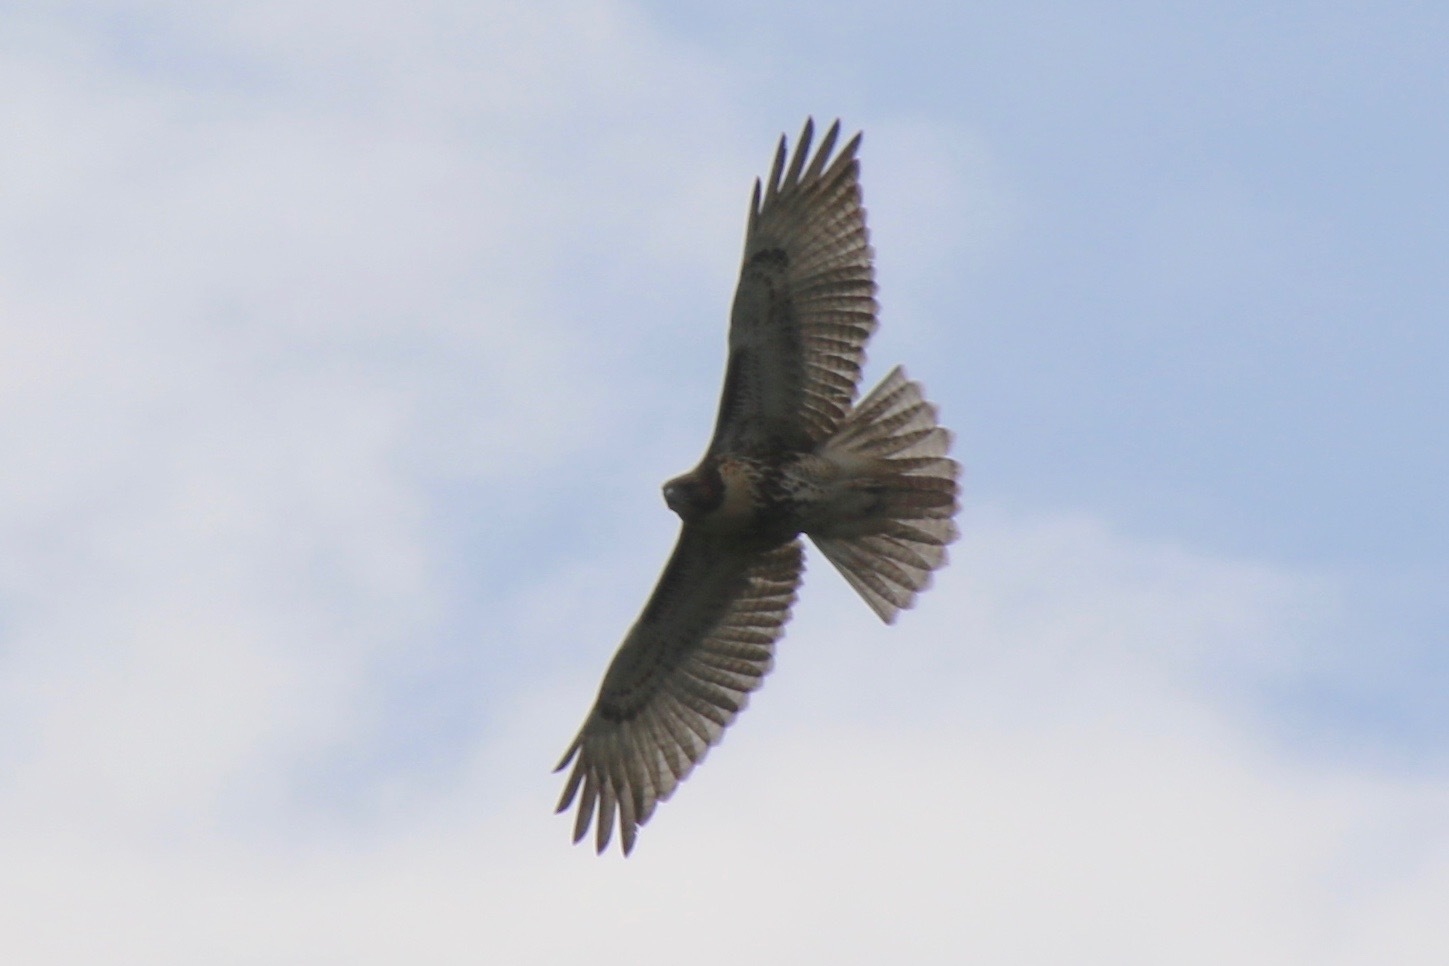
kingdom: Animalia
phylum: Chordata
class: Aves
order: Accipitriformes
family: Accipitridae
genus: Buteo
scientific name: Buteo jamaicensis
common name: Red-tailed hawk
